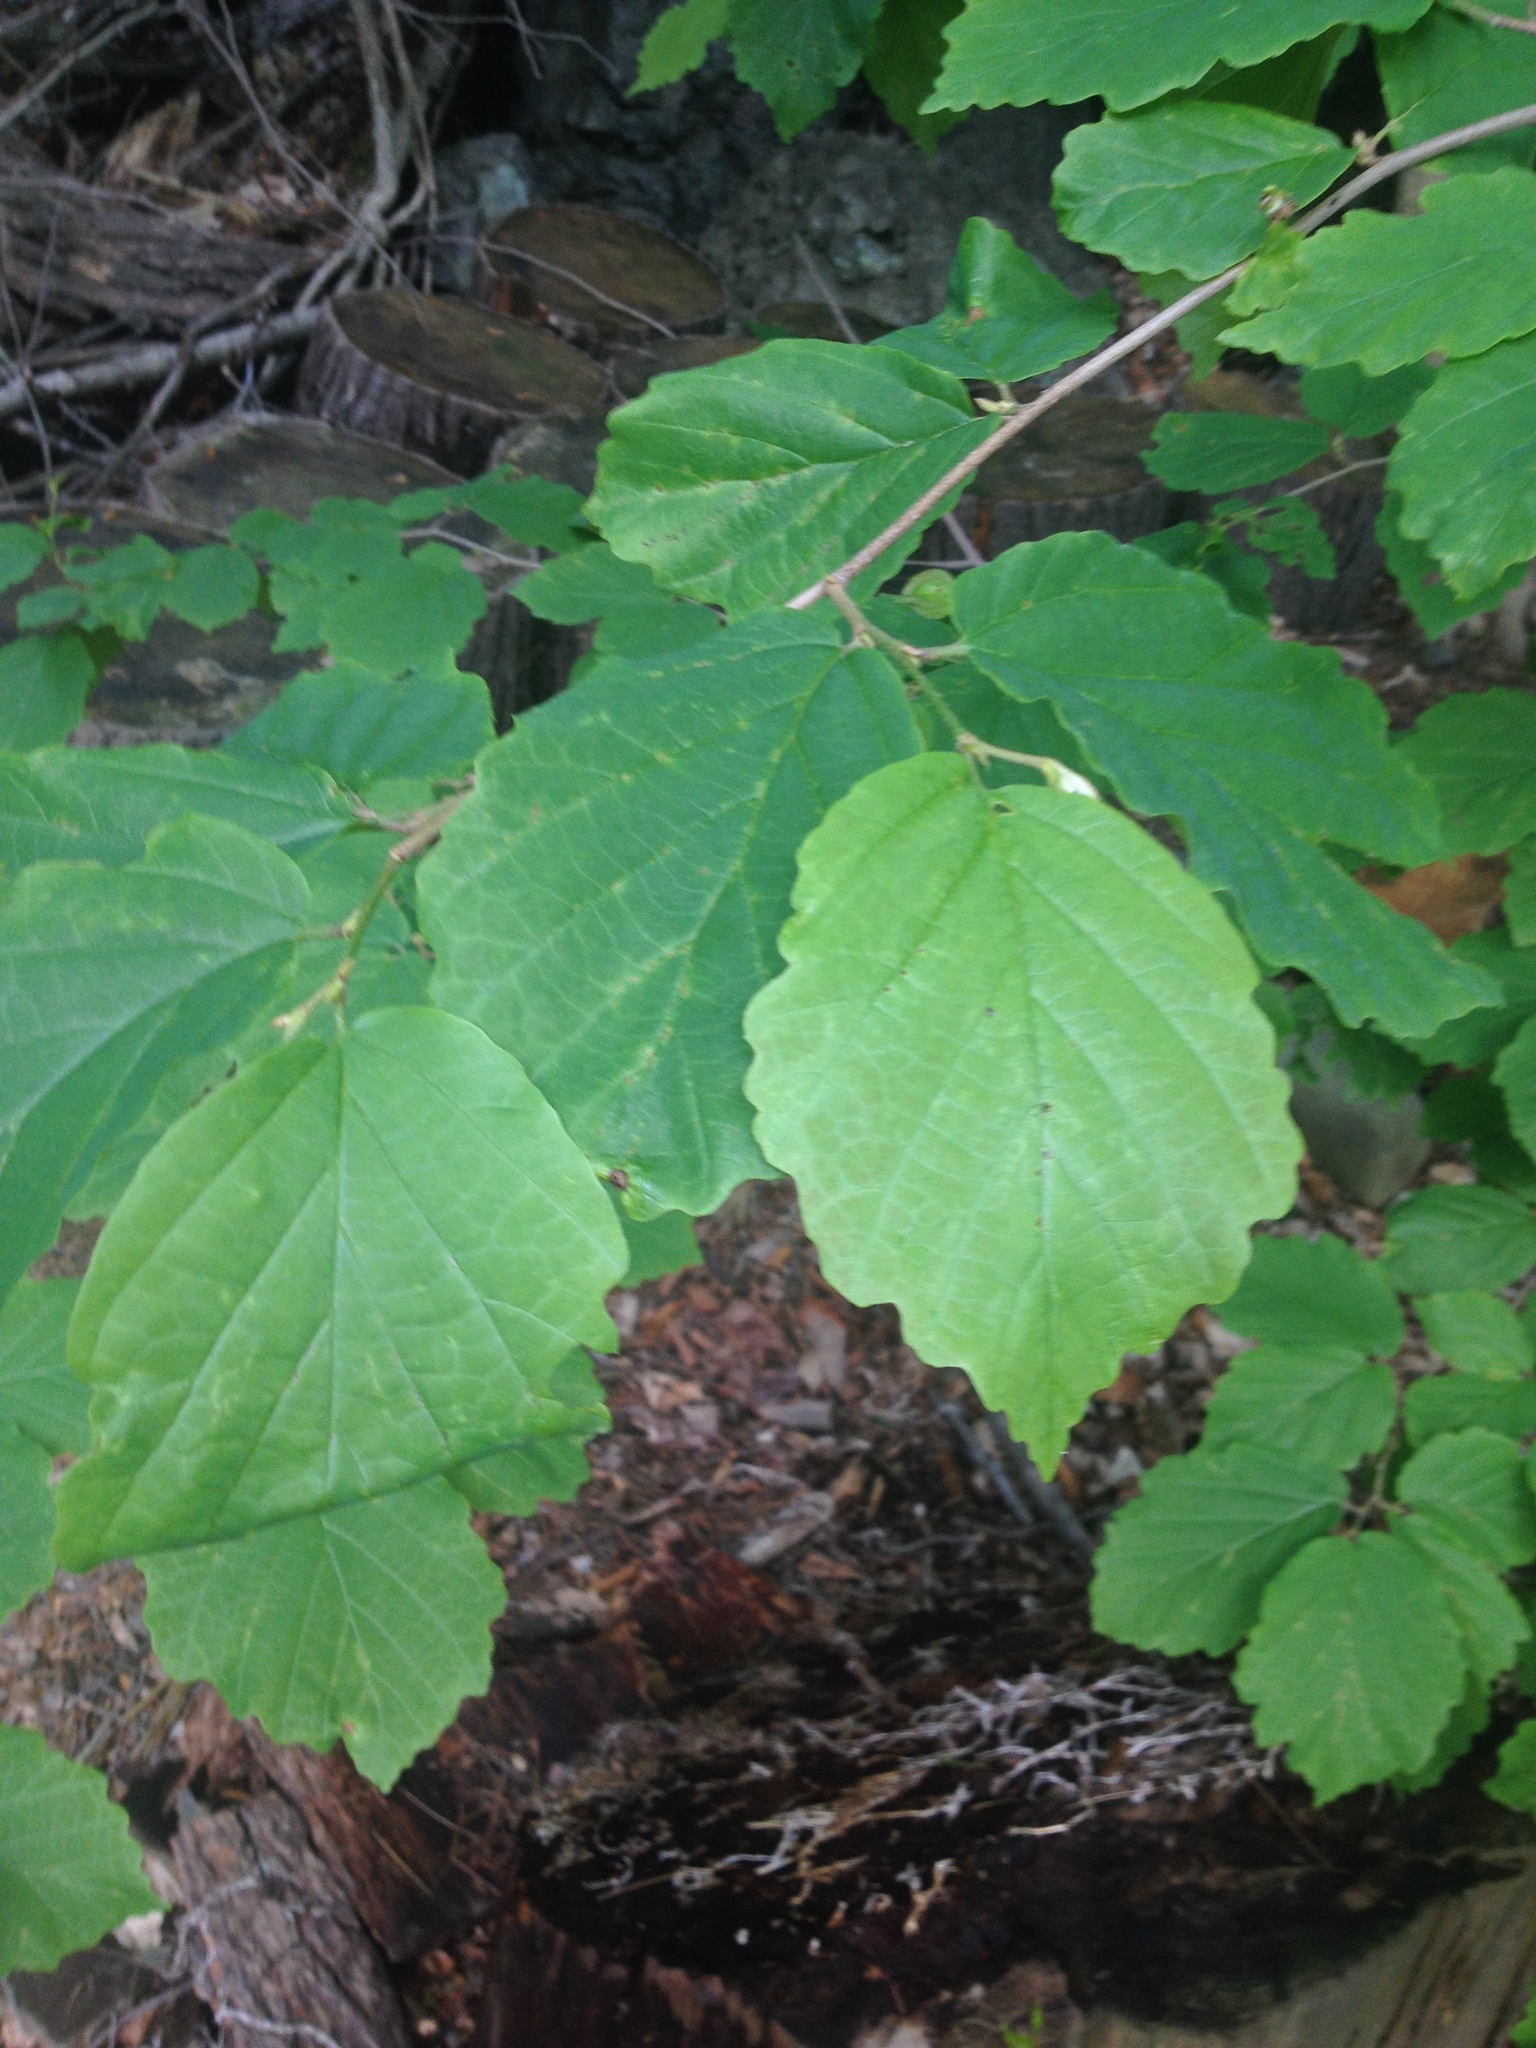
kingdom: Plantae
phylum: Tracheophyta
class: Magnoliopsida
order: Saxifragales
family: Hamamelidaceae
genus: Hamamelis
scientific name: Hamamelis virginiana
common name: Witch-hazel
